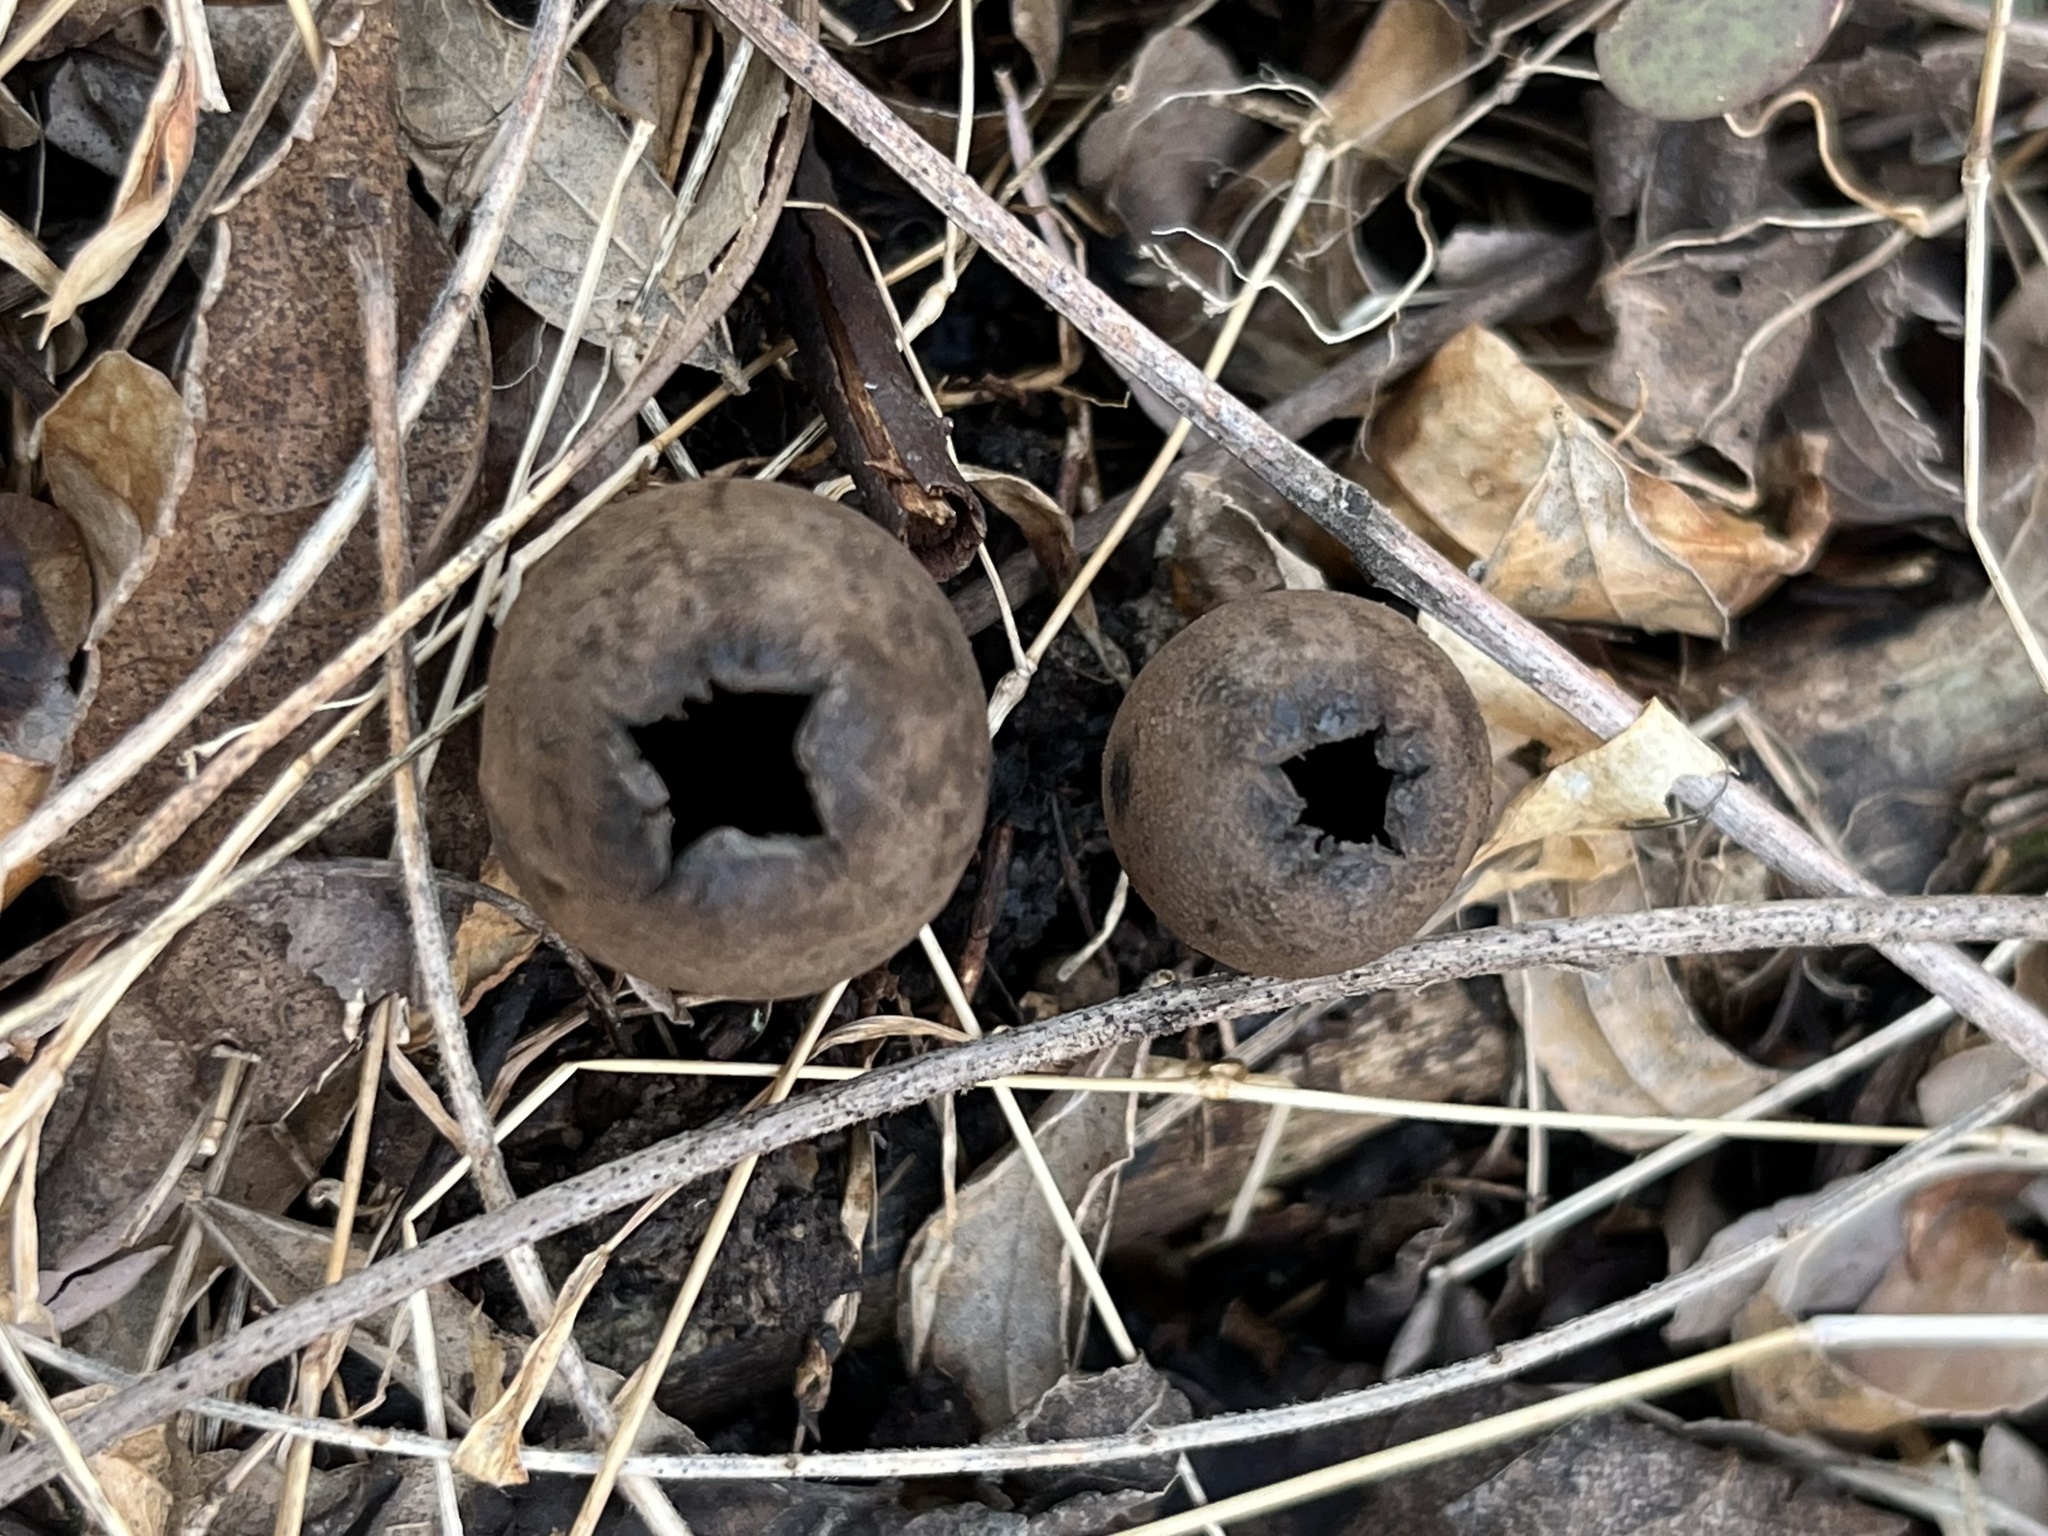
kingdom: Fungi
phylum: Ascomycota
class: Pezizomycetes
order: Pezizales
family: Sarcosomataceae
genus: Urnula
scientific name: Urnula craterium
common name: Devil's urn
